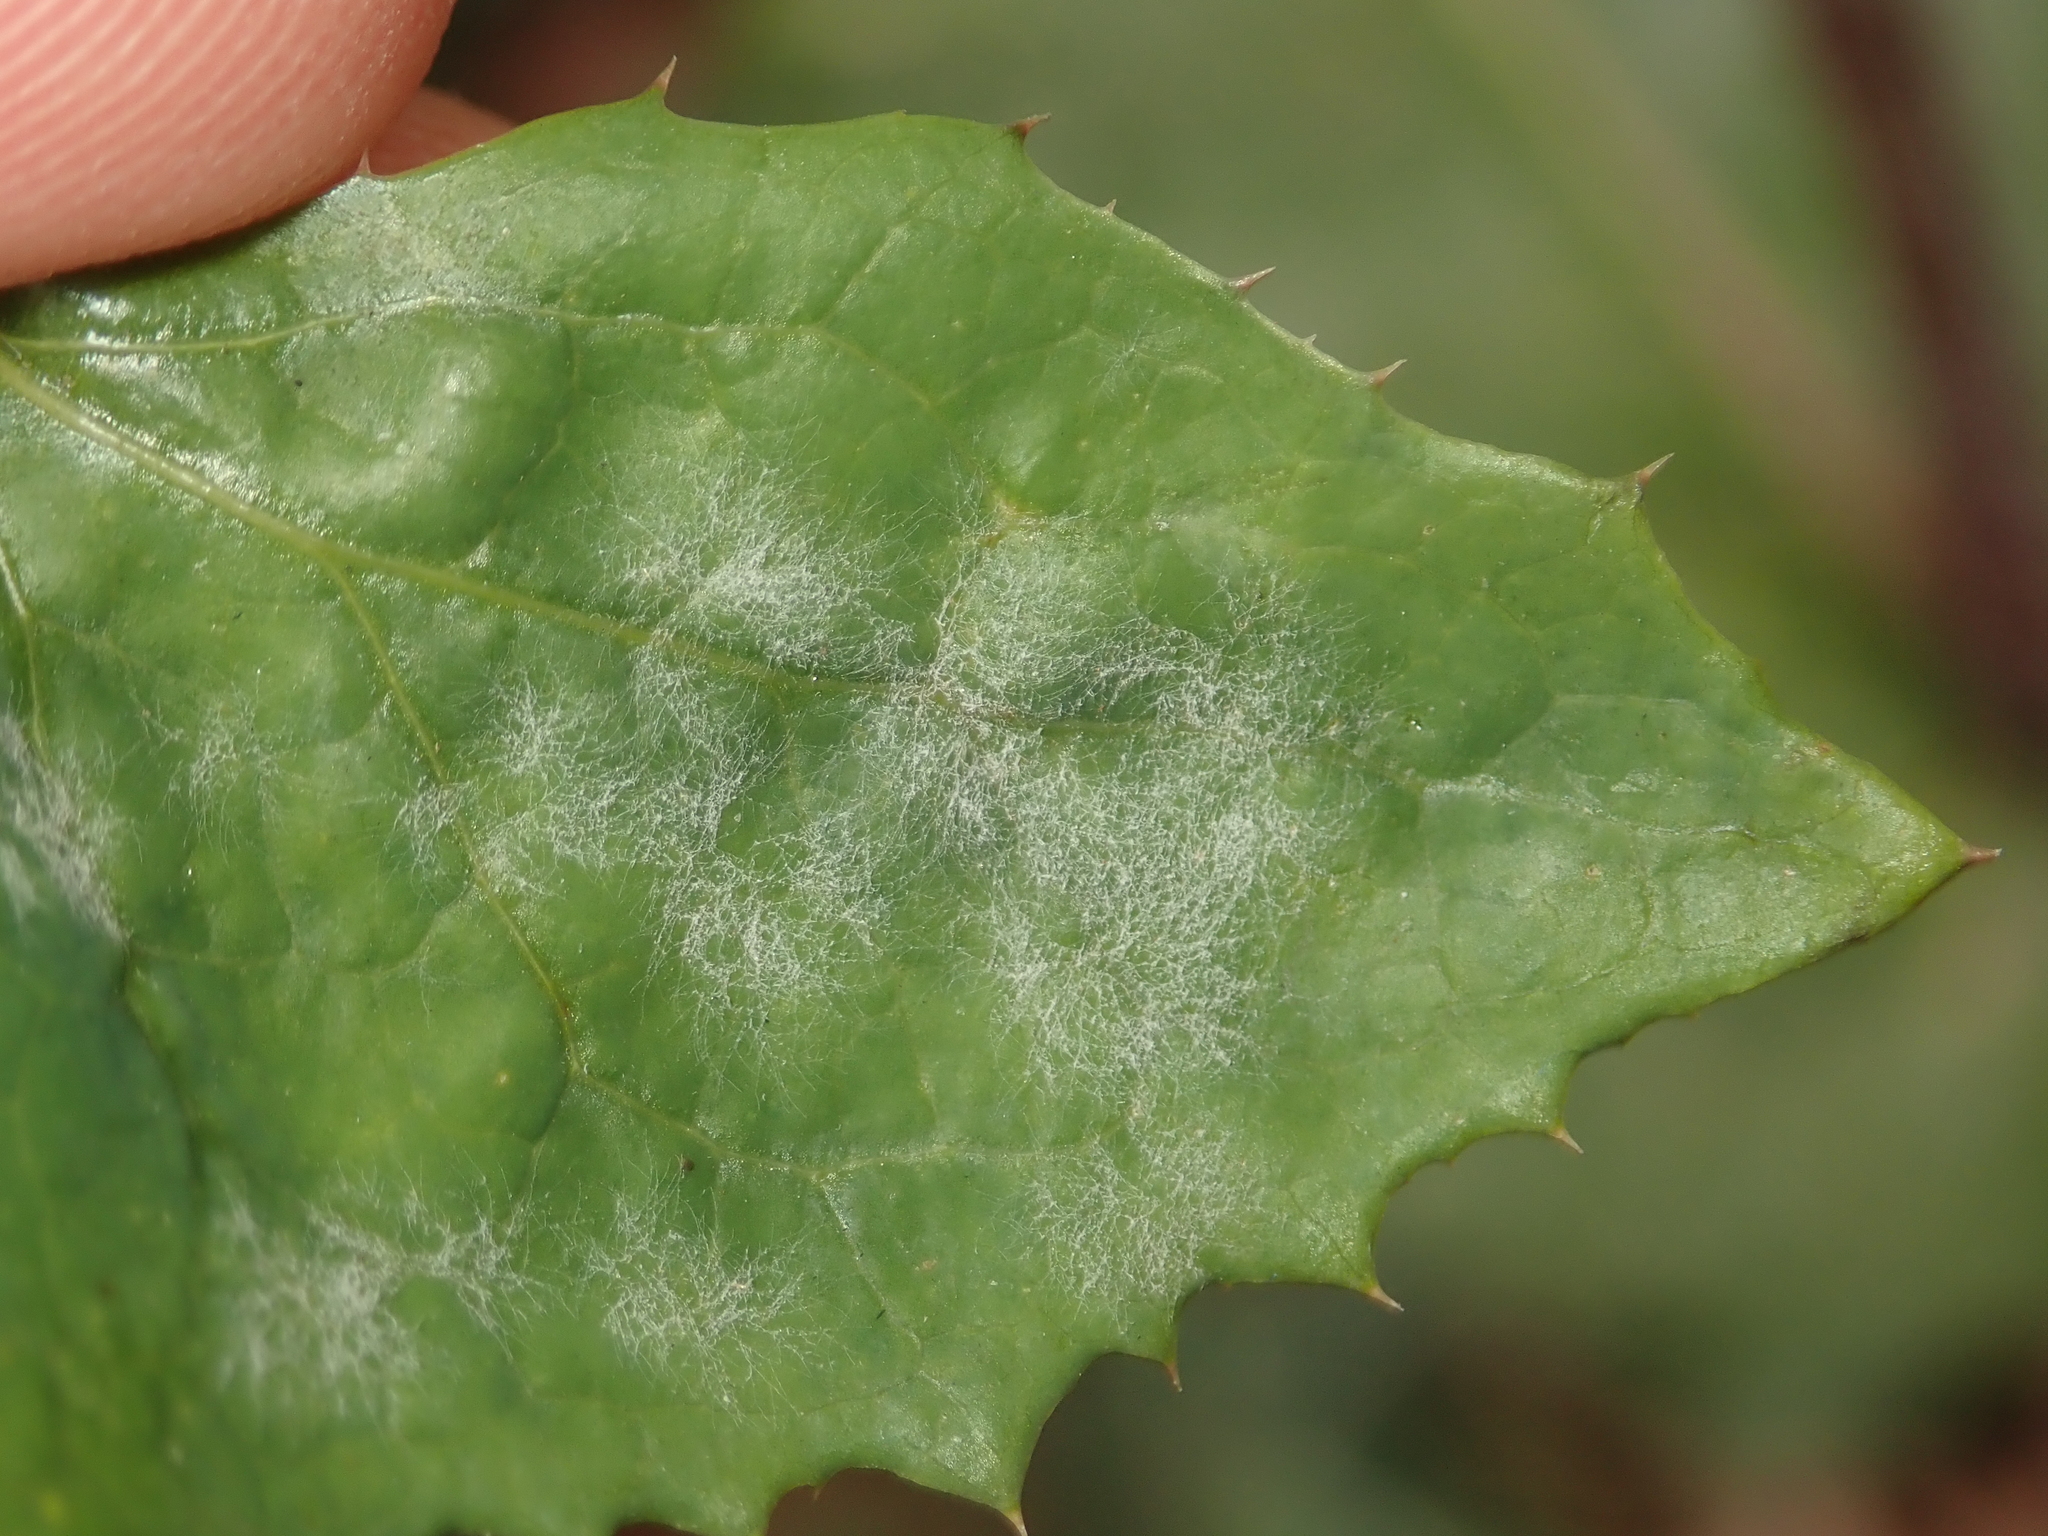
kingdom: Fungi
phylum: Ascomycota
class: Leotiomycetes
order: Helotiales
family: Erysiphaceae
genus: Golovinomyces
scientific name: Golovinomyces sonchicola
